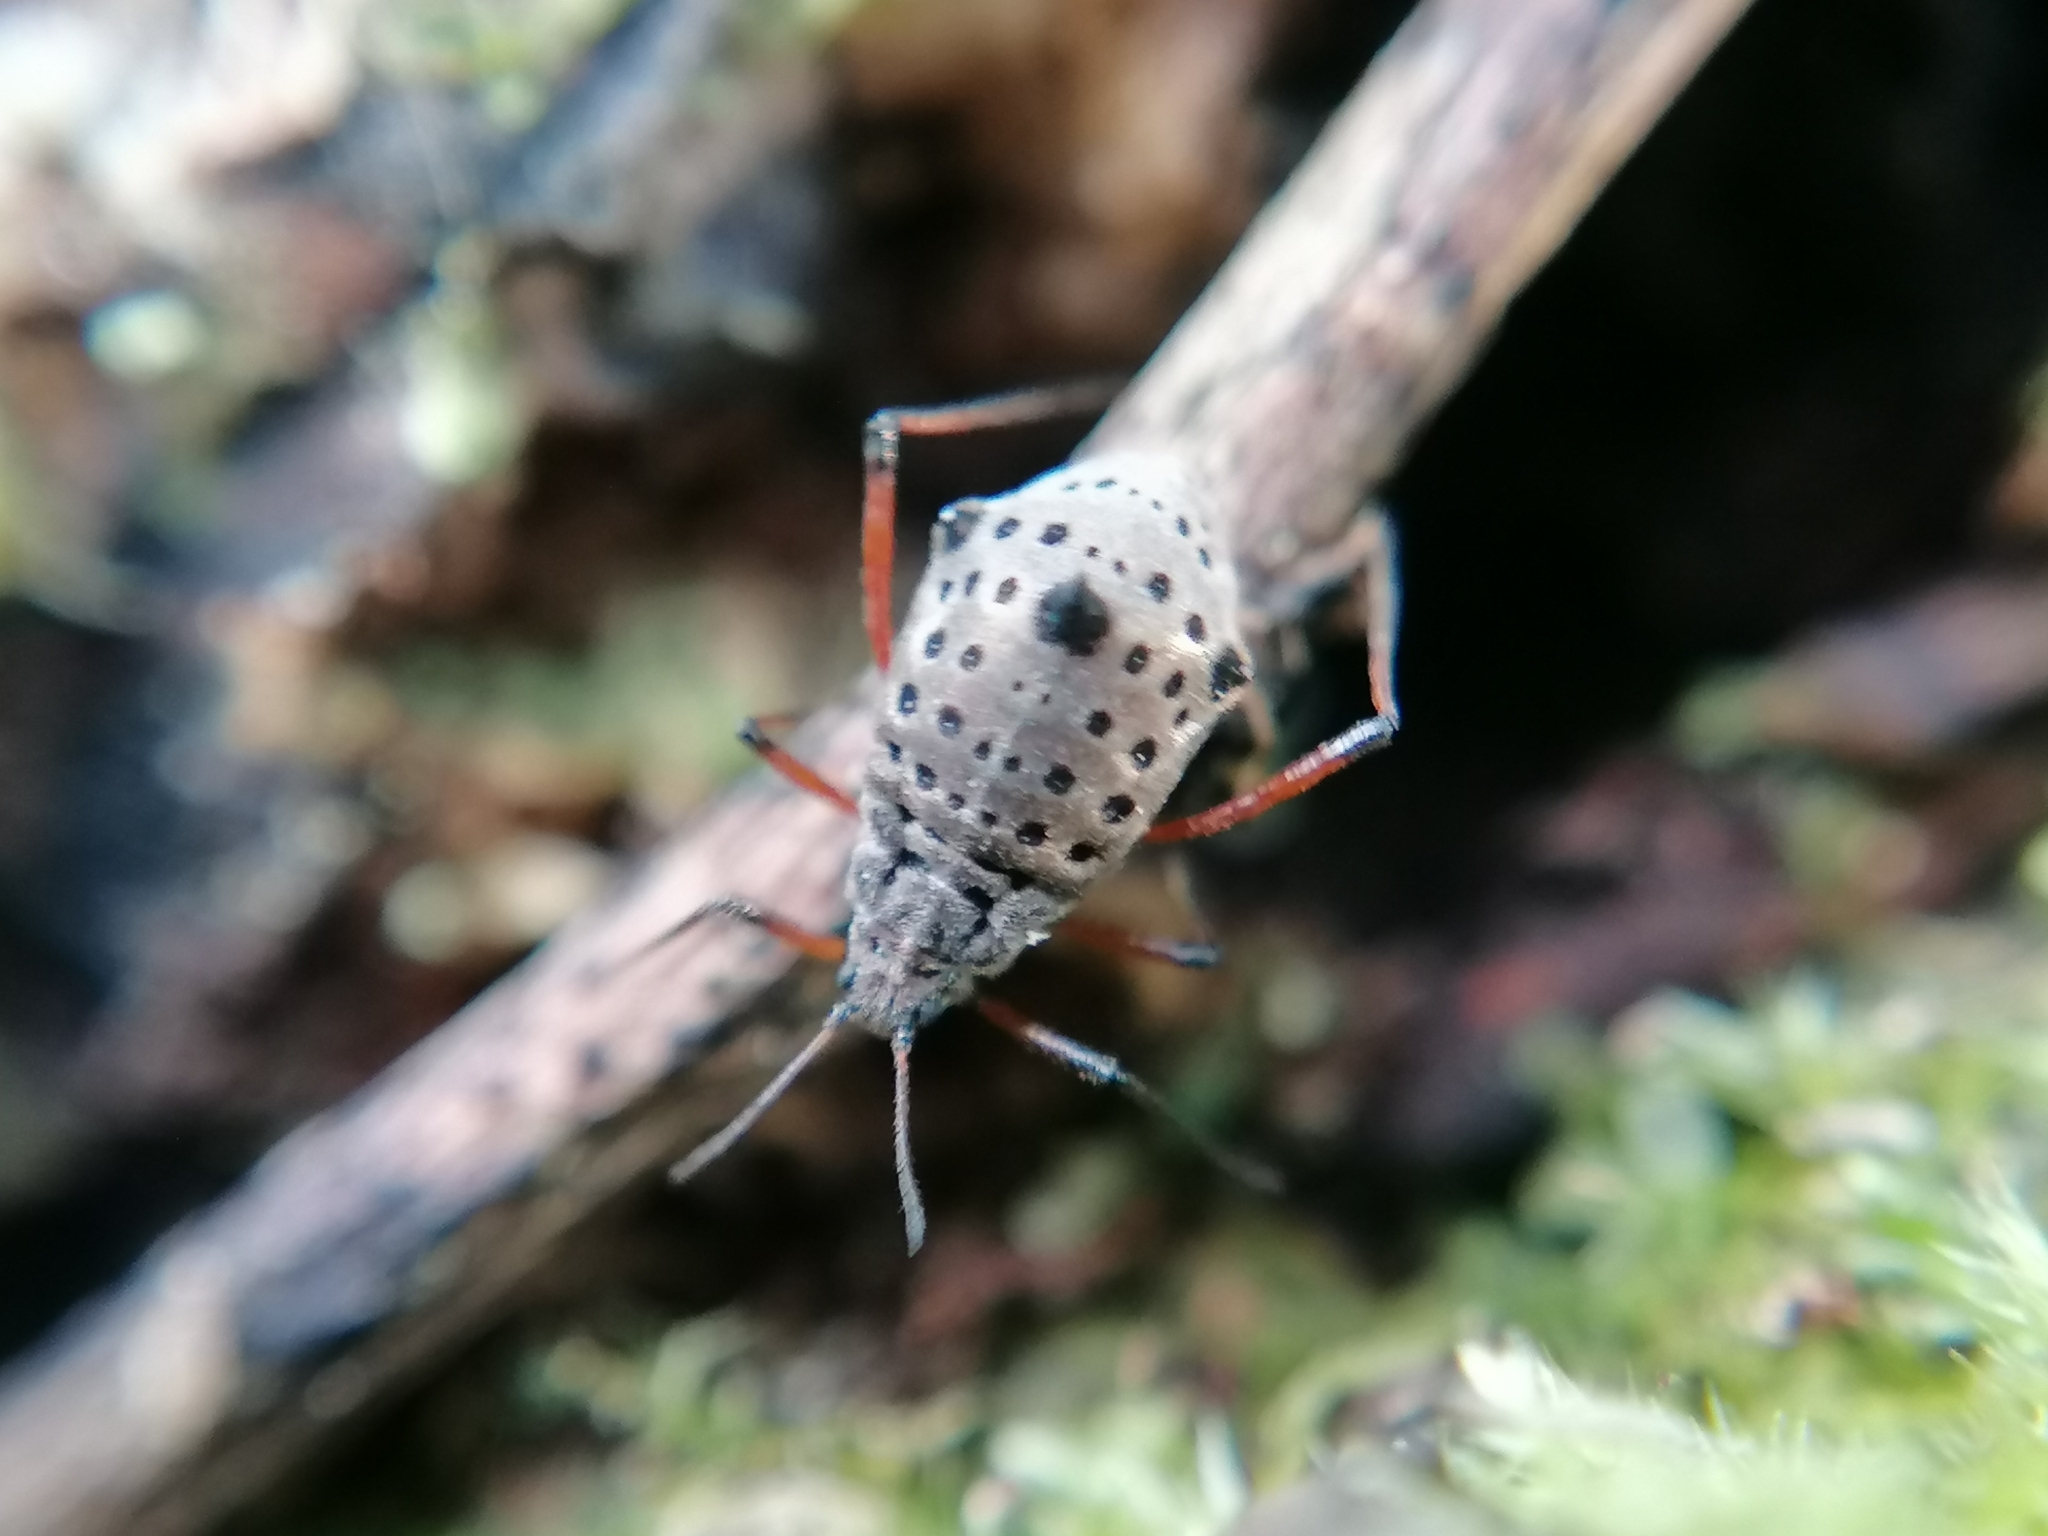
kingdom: Animalia
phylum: Arthropoda
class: Insecta
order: Hemiptera
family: Aphididae
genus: Tuberolachnus
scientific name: Tuberolachnus salignus
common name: Giant willow aphid
